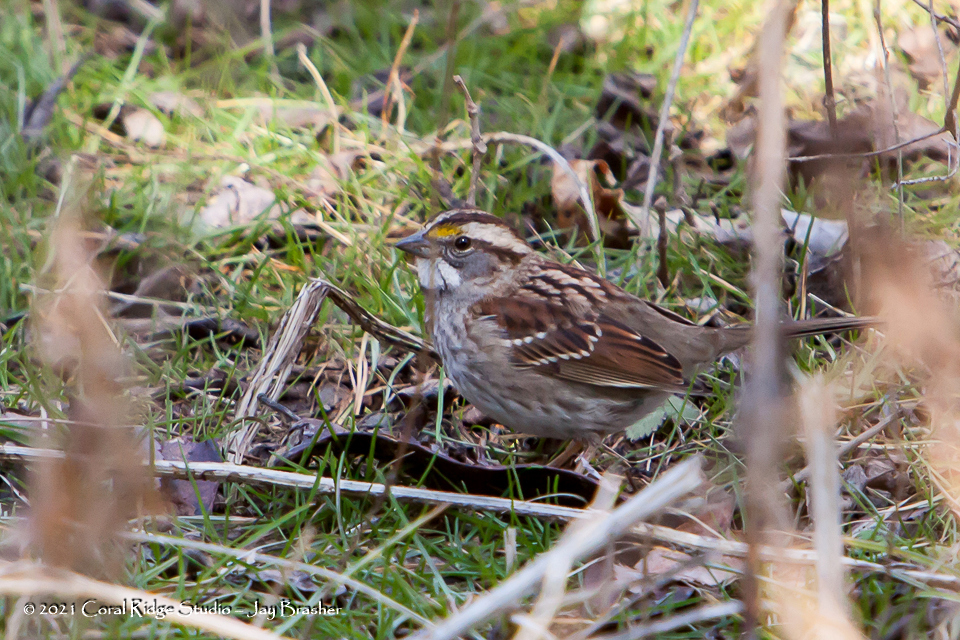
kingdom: Animalia
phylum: Chordata
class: Aves
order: Passeriformes
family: Passerellidae
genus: Zonotrichia
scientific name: Zonotrichia albicollis
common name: White-throated sparrow
